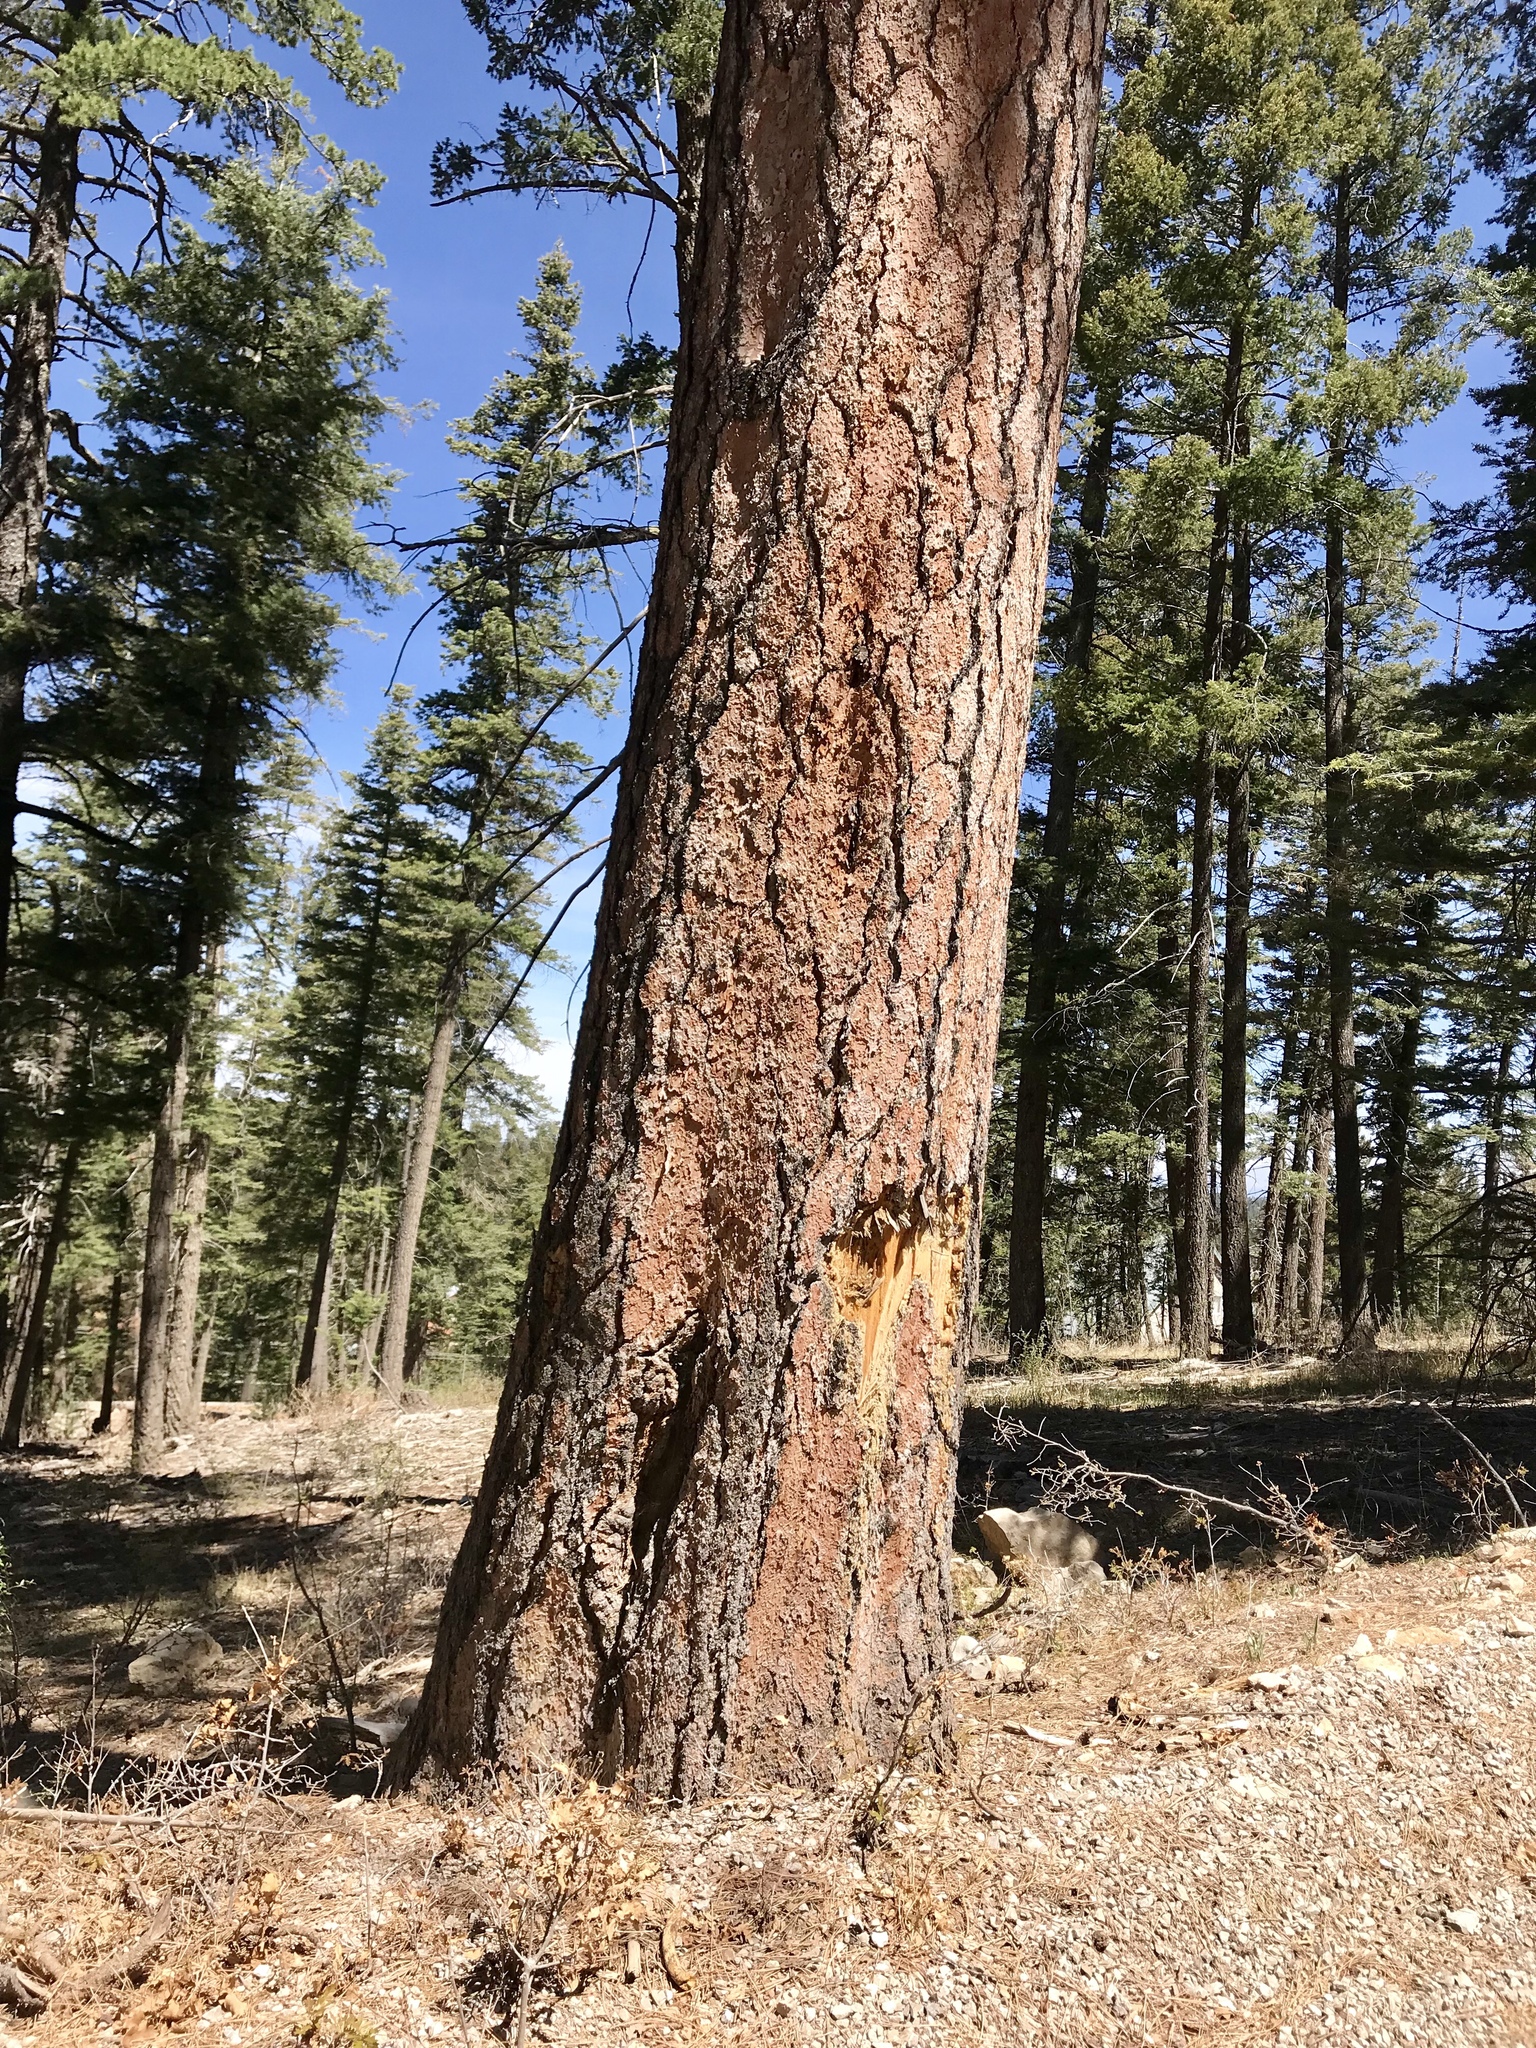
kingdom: Plantae
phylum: Tracheophyta
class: Pinopsida
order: Pinales
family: Pinaceae
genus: Pinus
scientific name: Pinus ponderosa
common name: Western yellow-pine
